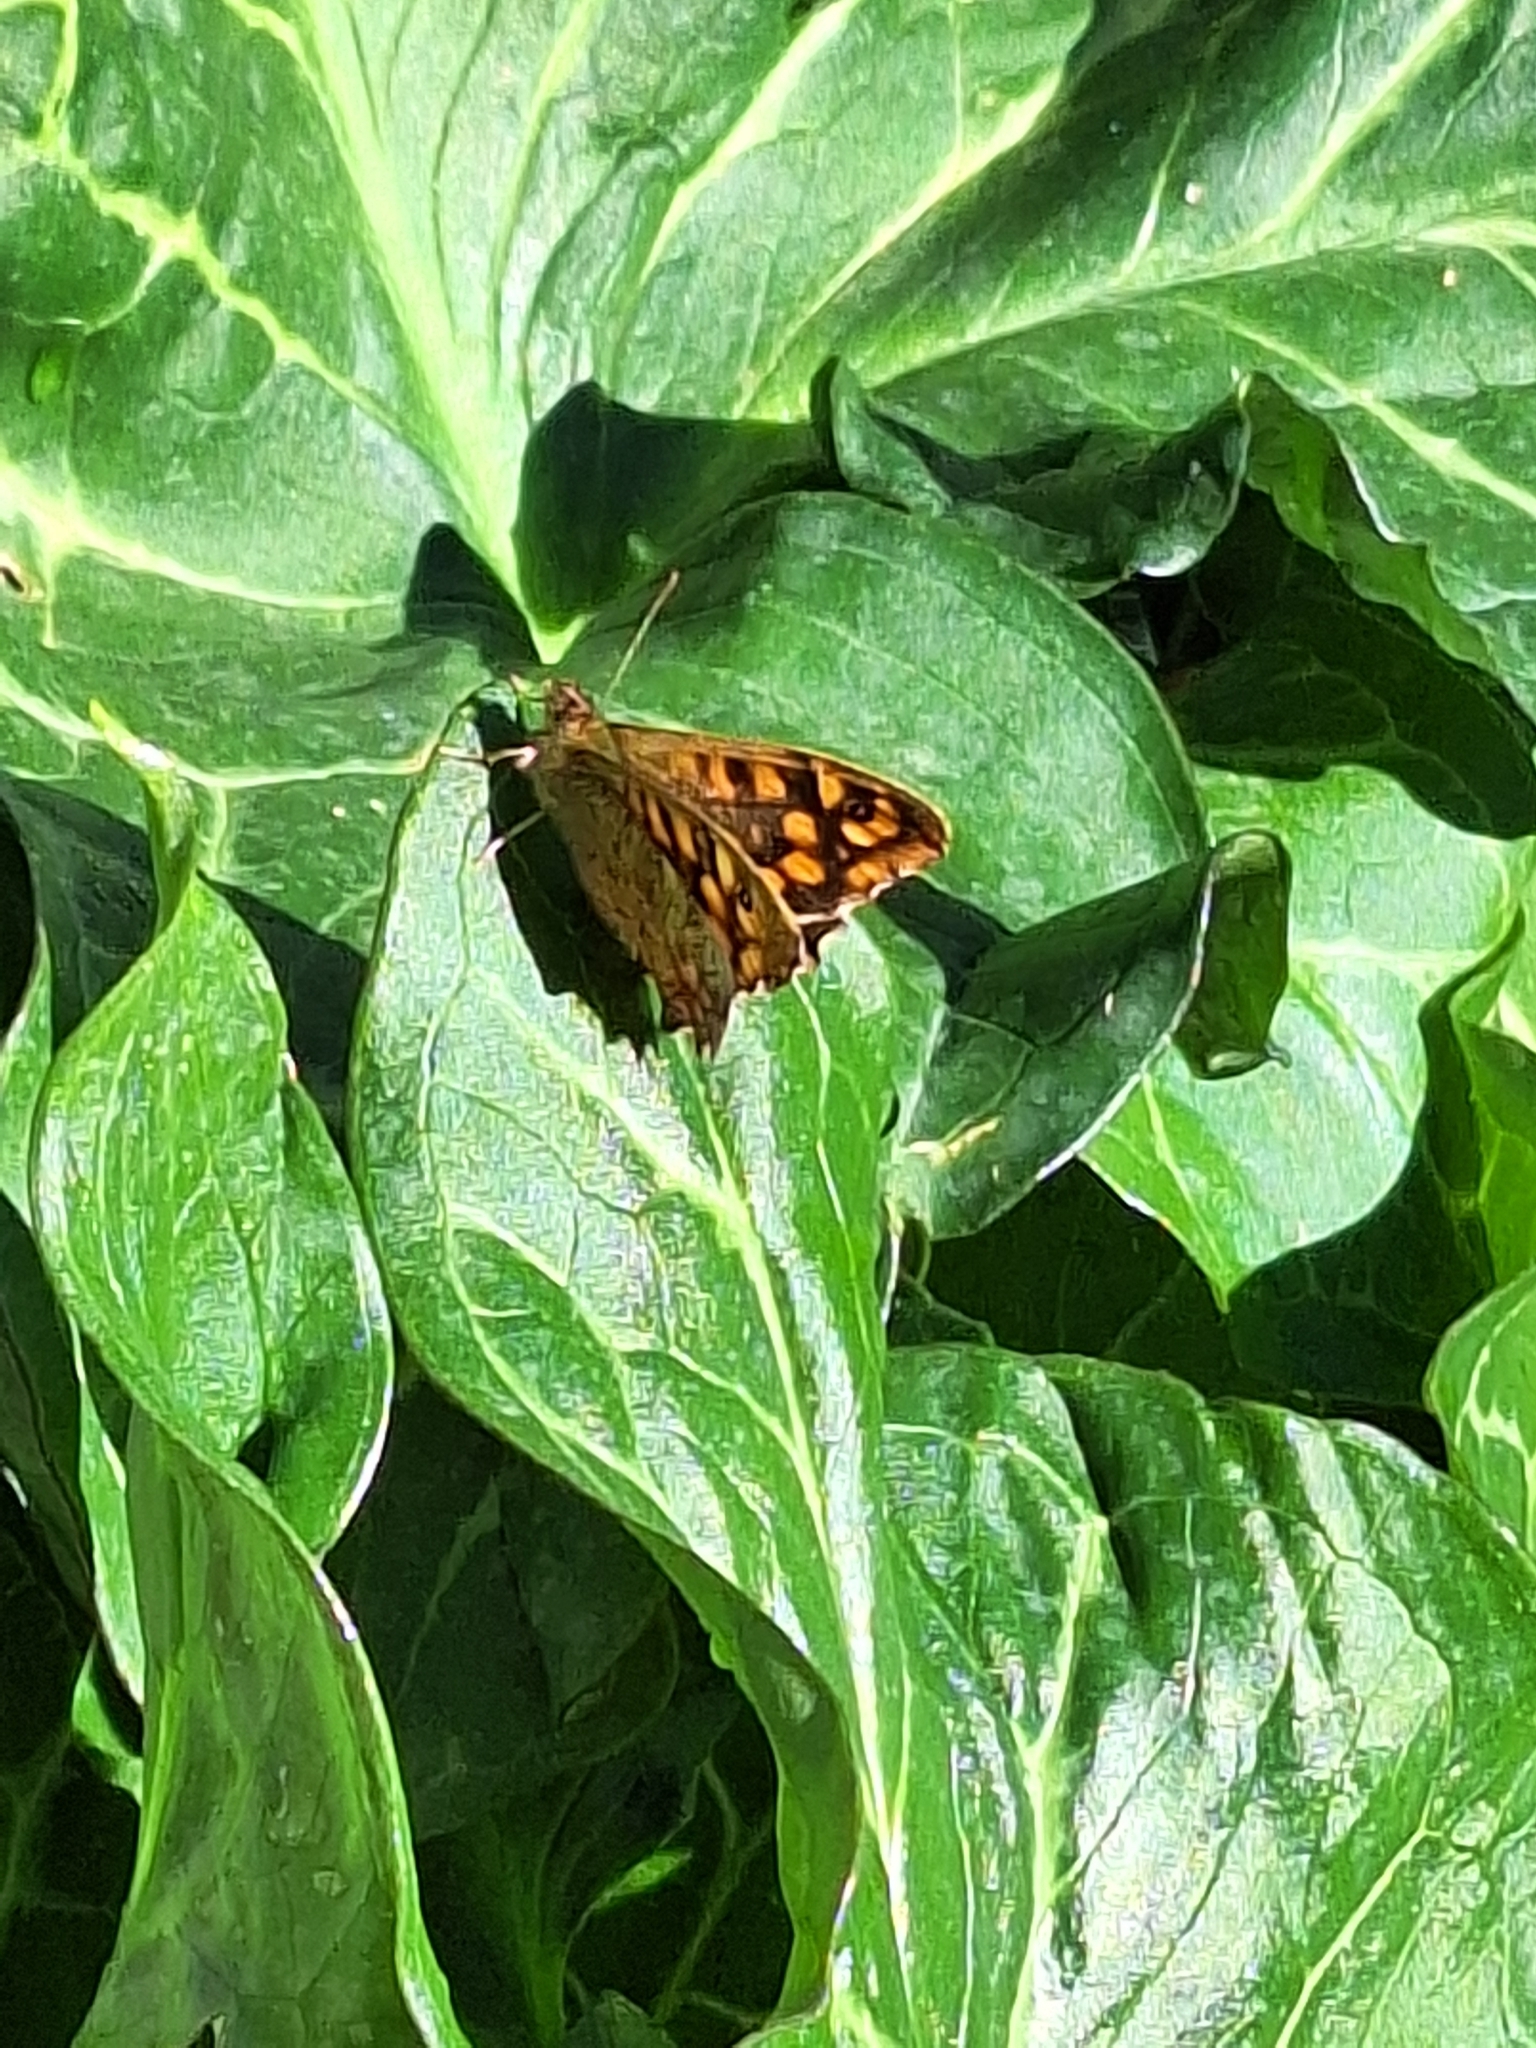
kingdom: Animalia
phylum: Arthropoda
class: Insecta
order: Lepidoptera
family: Nymphalidae
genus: Pararge
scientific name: Pararge aegeria
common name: Speckled wood
